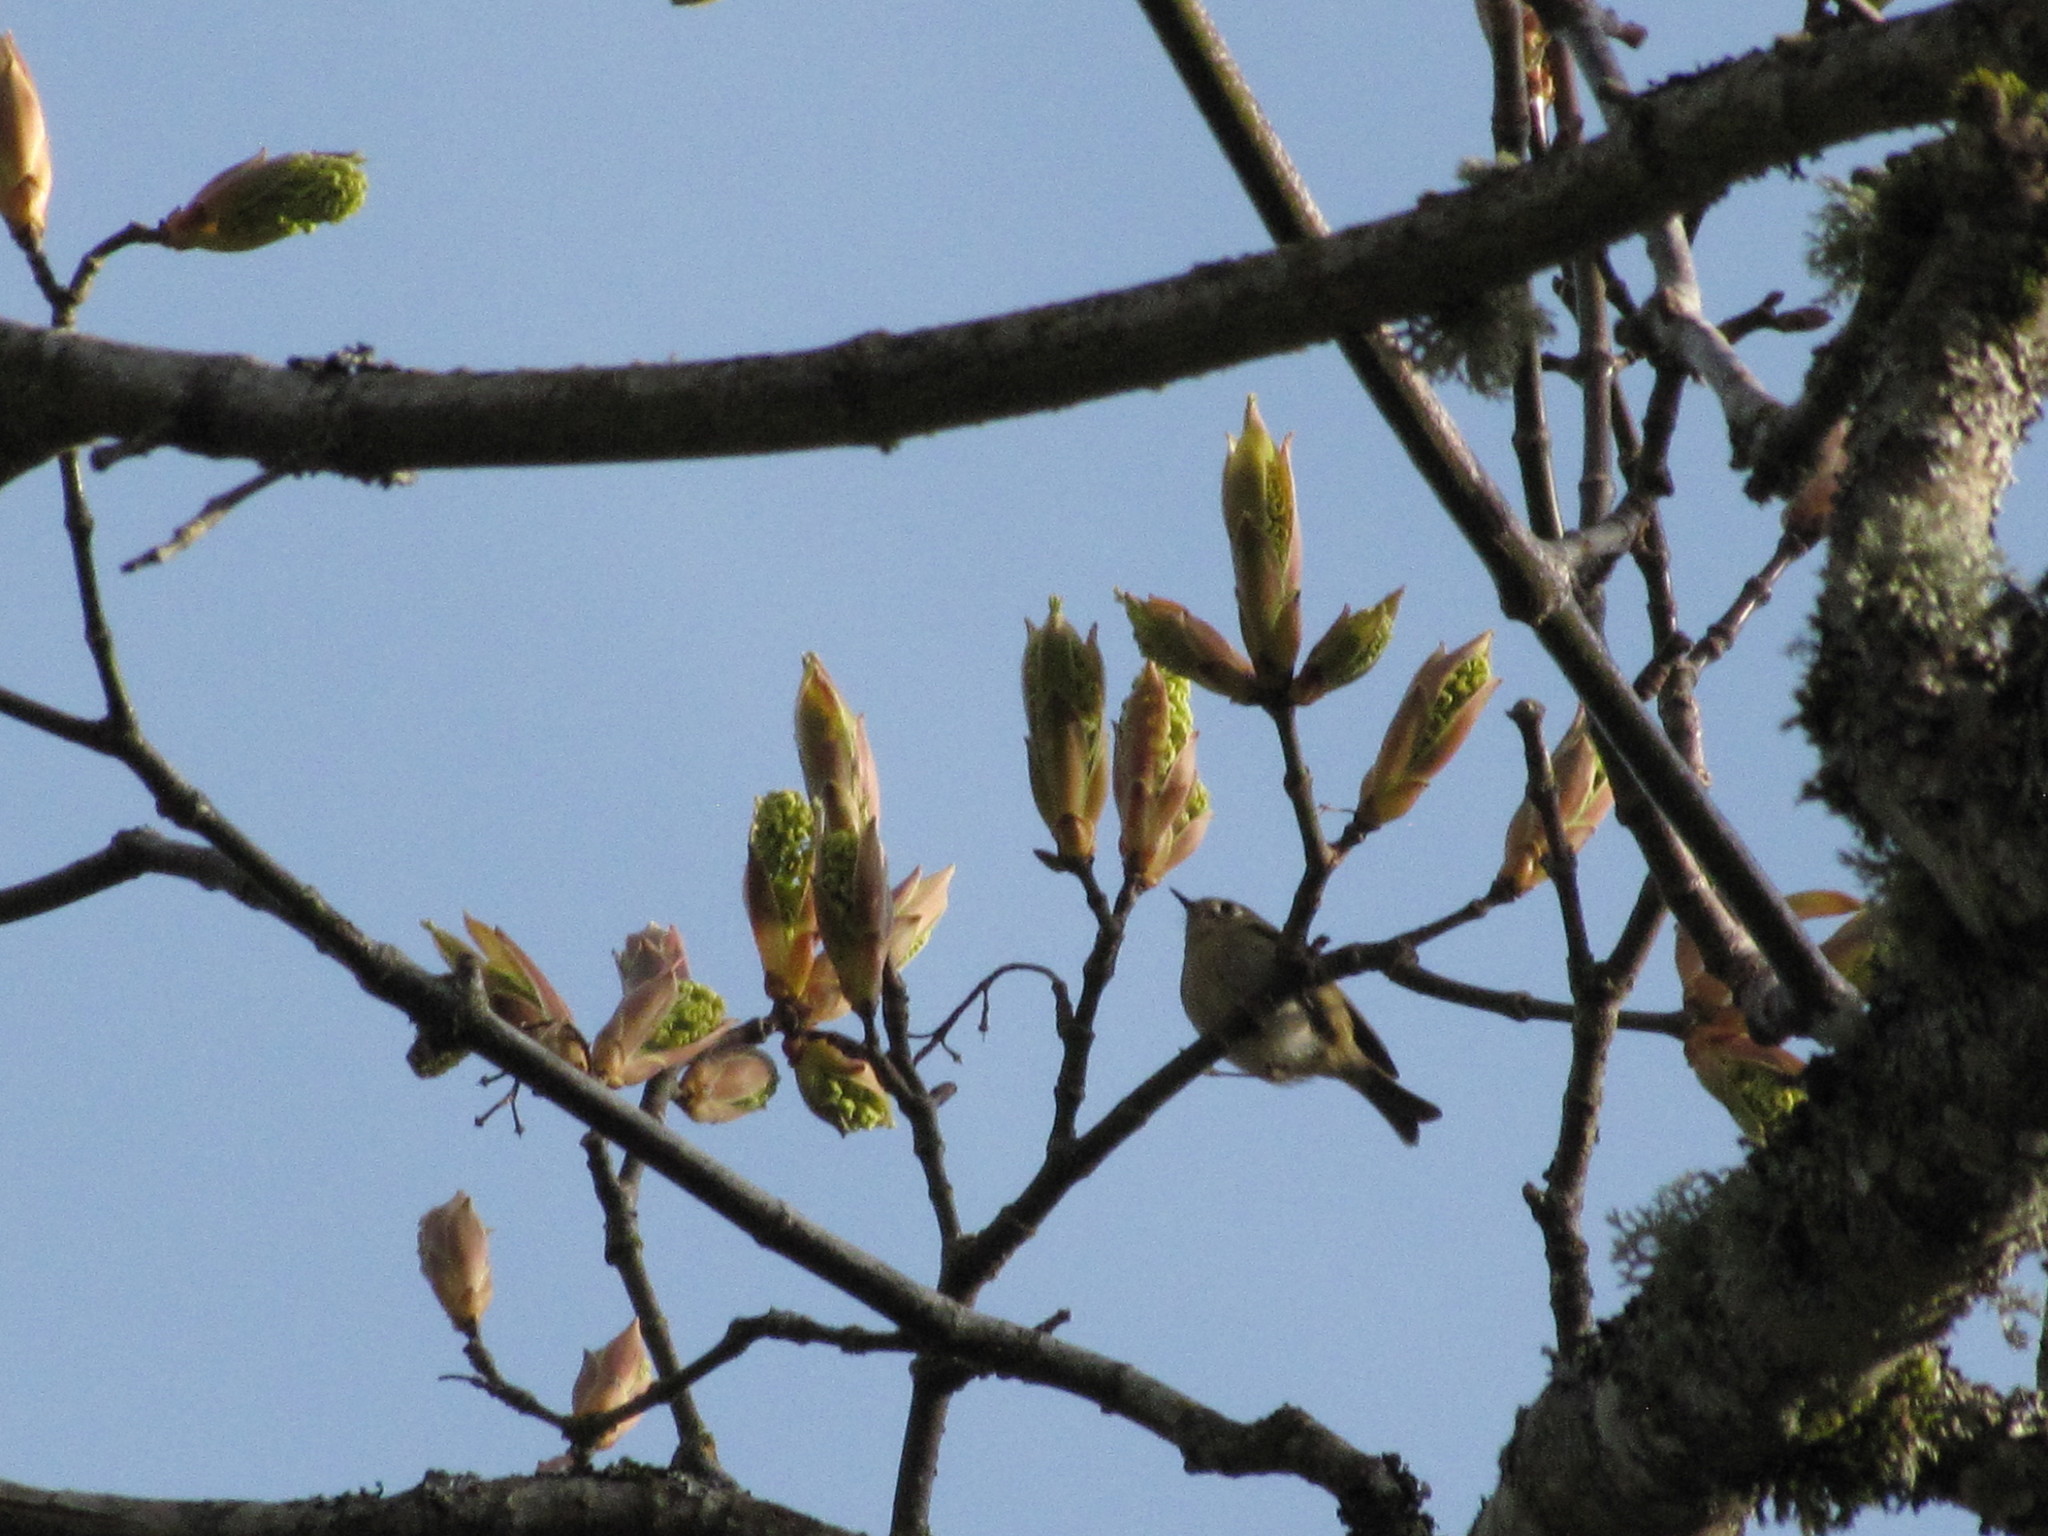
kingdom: Animalia
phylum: Chordata
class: Aves
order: Passeriformes
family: Regulidae
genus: Regulus
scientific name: Regulus calendula
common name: Ruby-crowned kinglet
